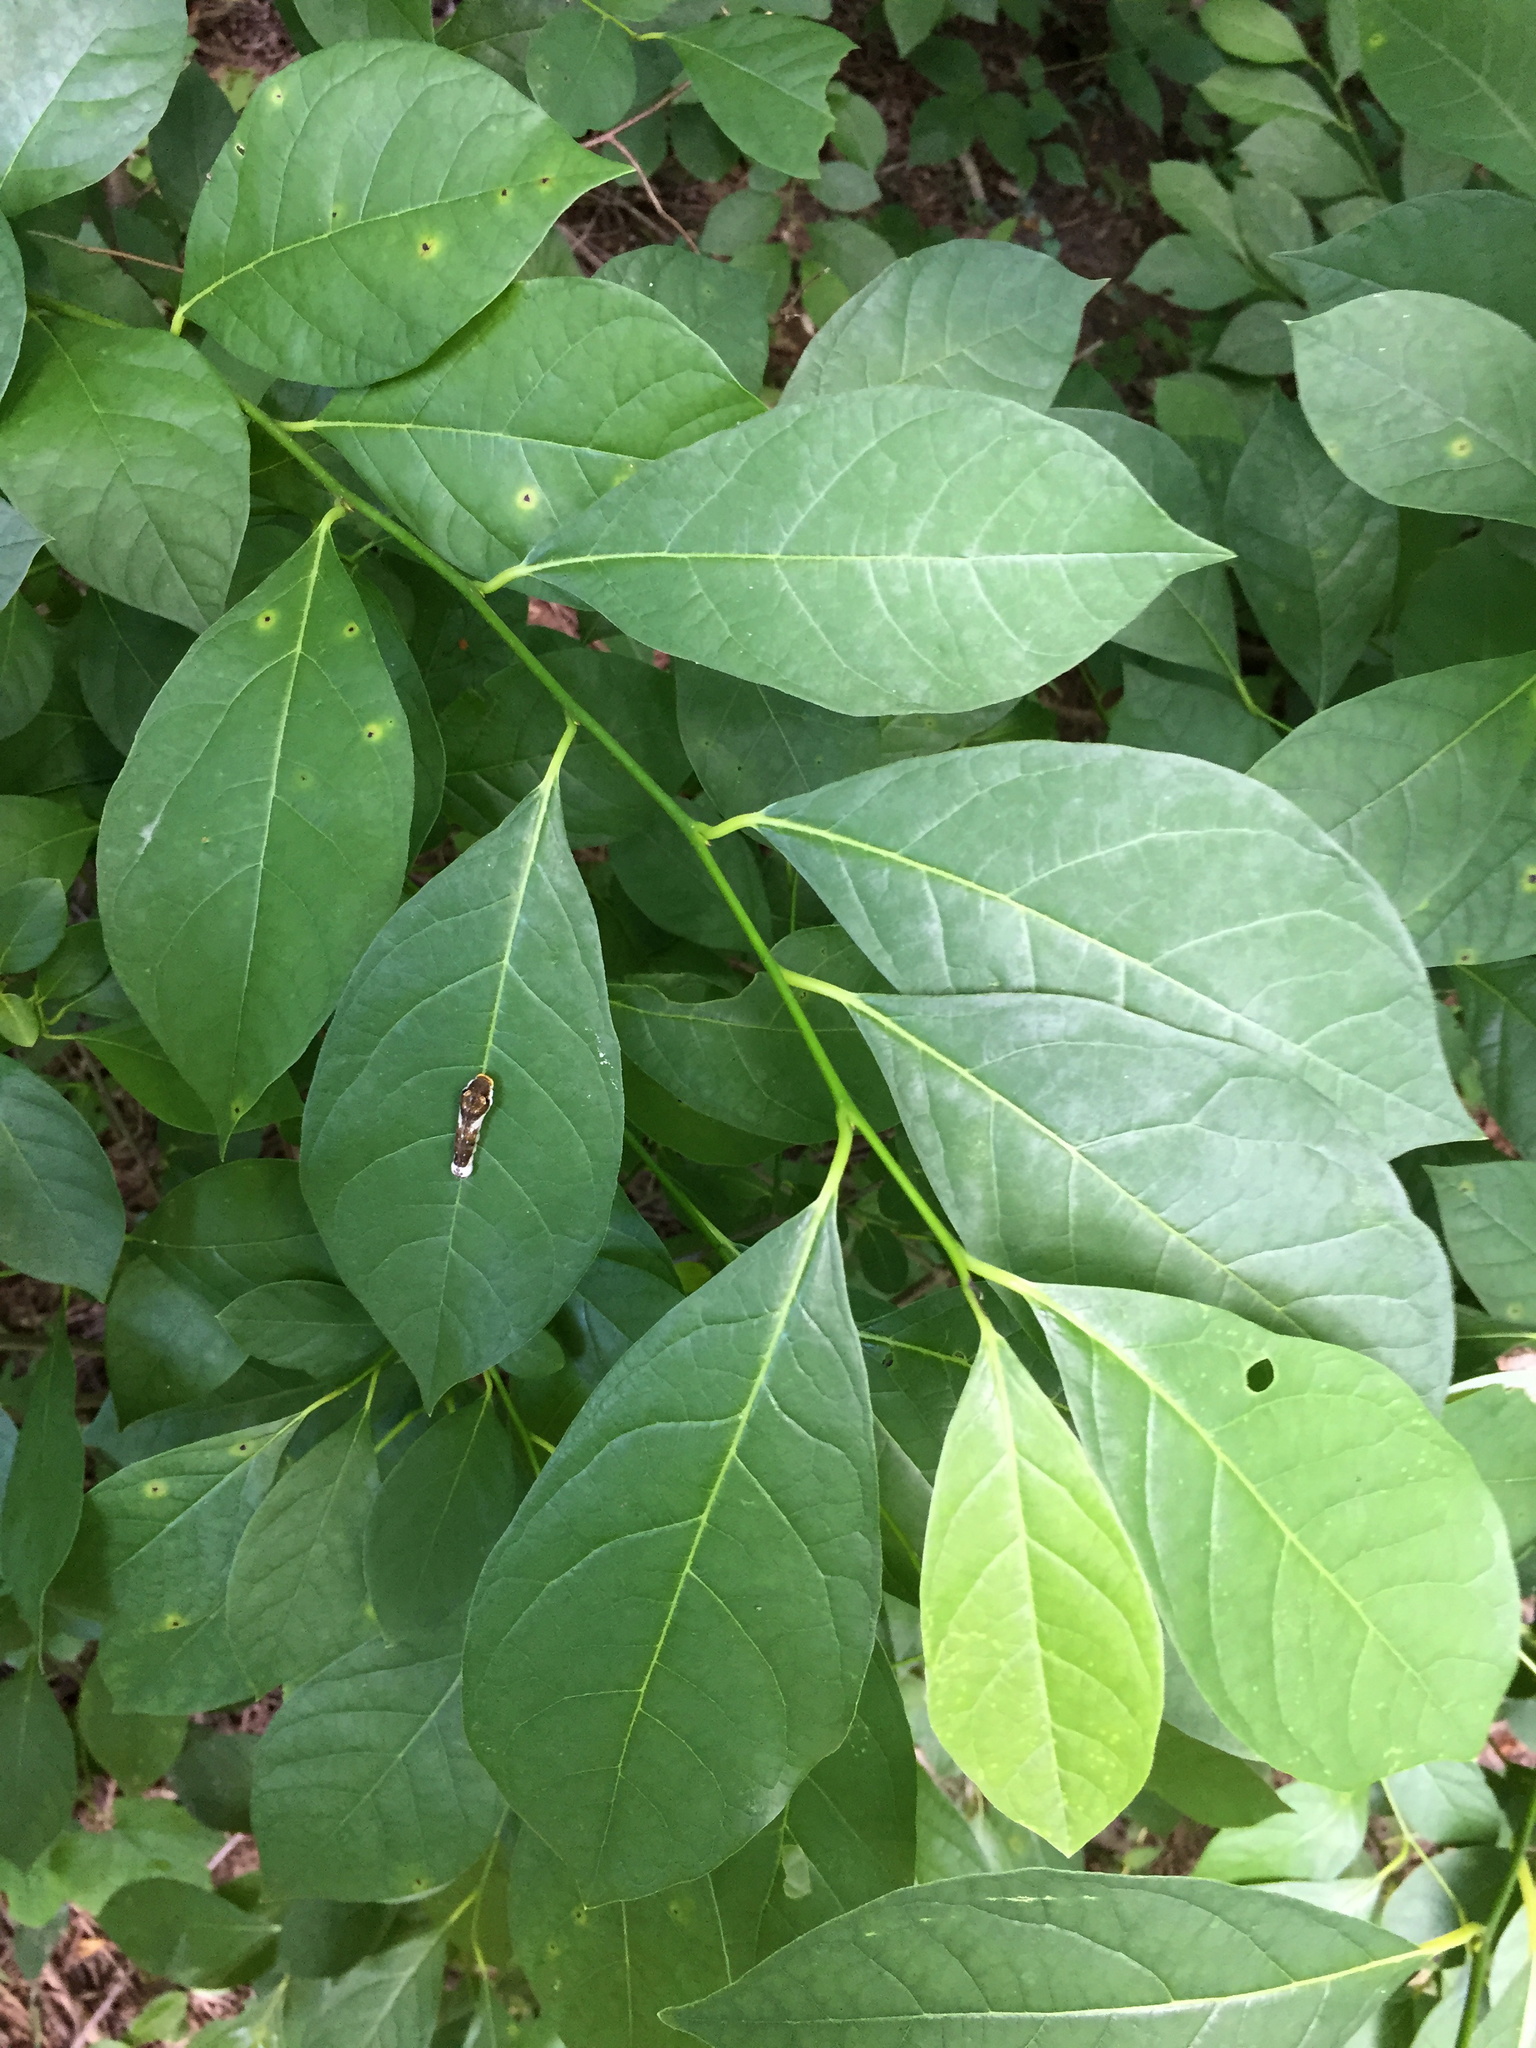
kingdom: Plantae
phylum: Tracheophyta
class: Magnoliopsida
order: Laurales
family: Lauraceae
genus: Lindera
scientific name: Lindera benzoin
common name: Spicebush
